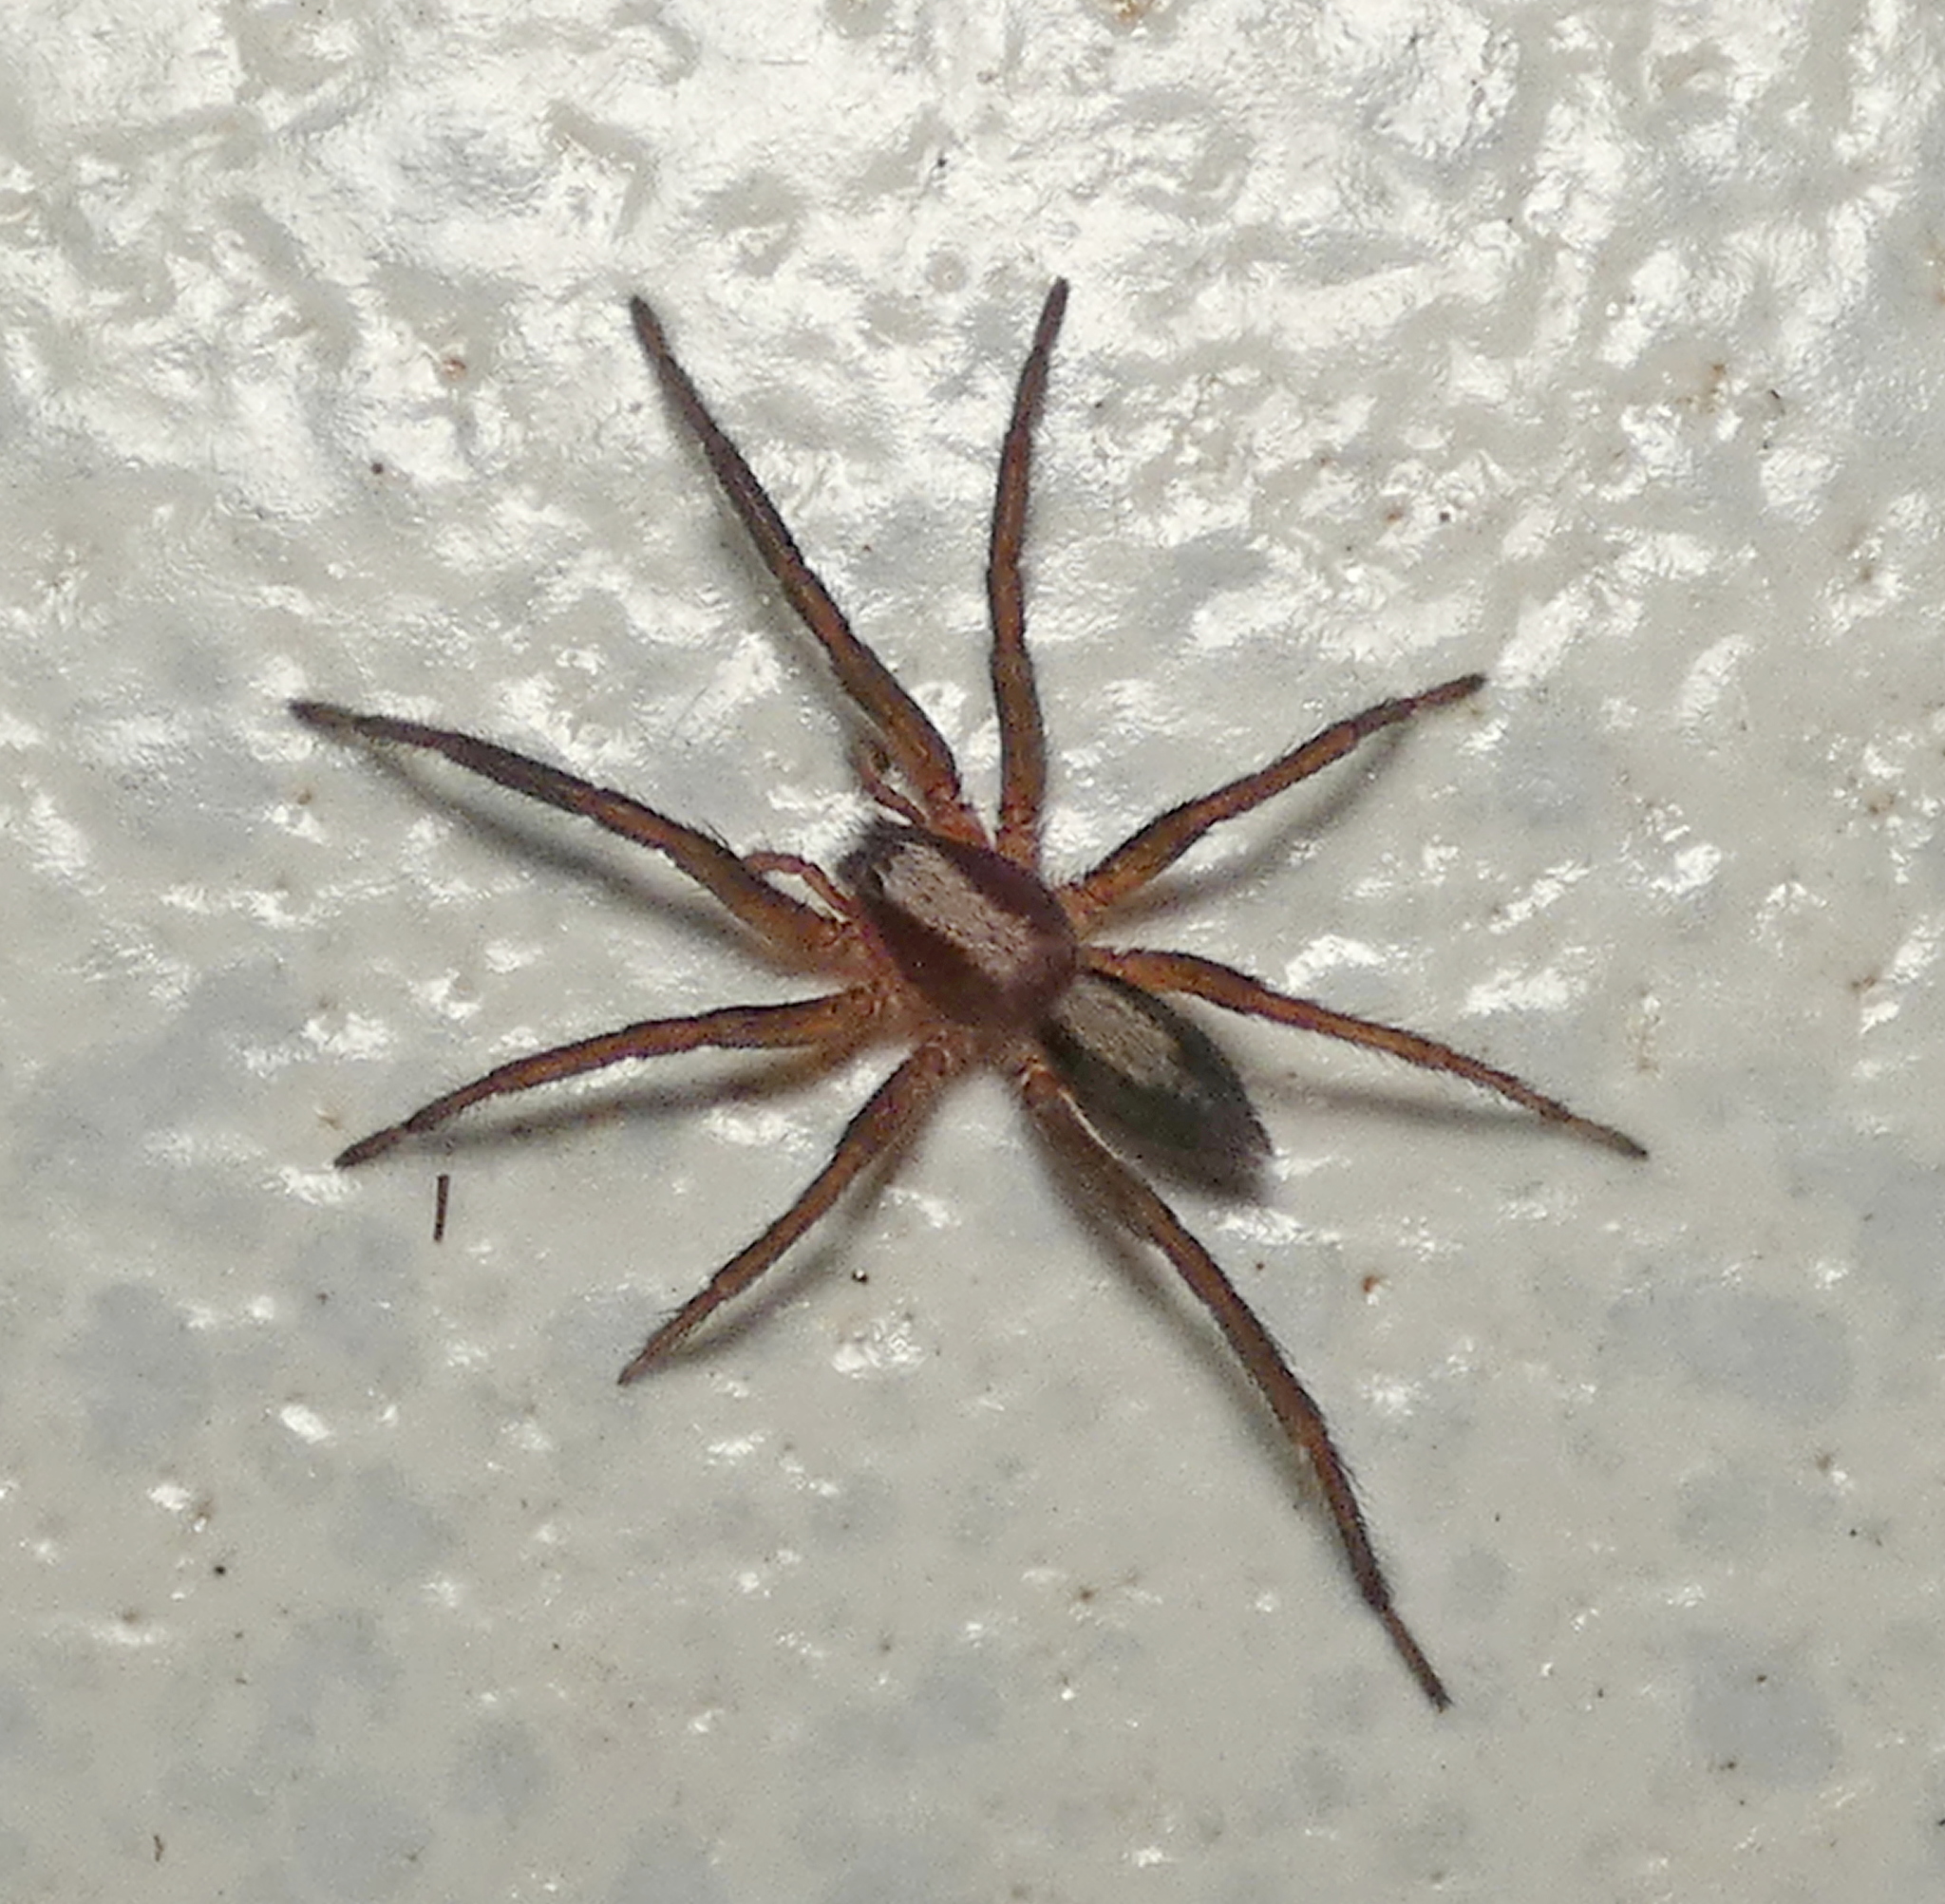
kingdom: Animalia
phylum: Arthropoda
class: Arachnida
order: Araneae
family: Miturgidae
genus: Teminius
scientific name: Teminius insularis
